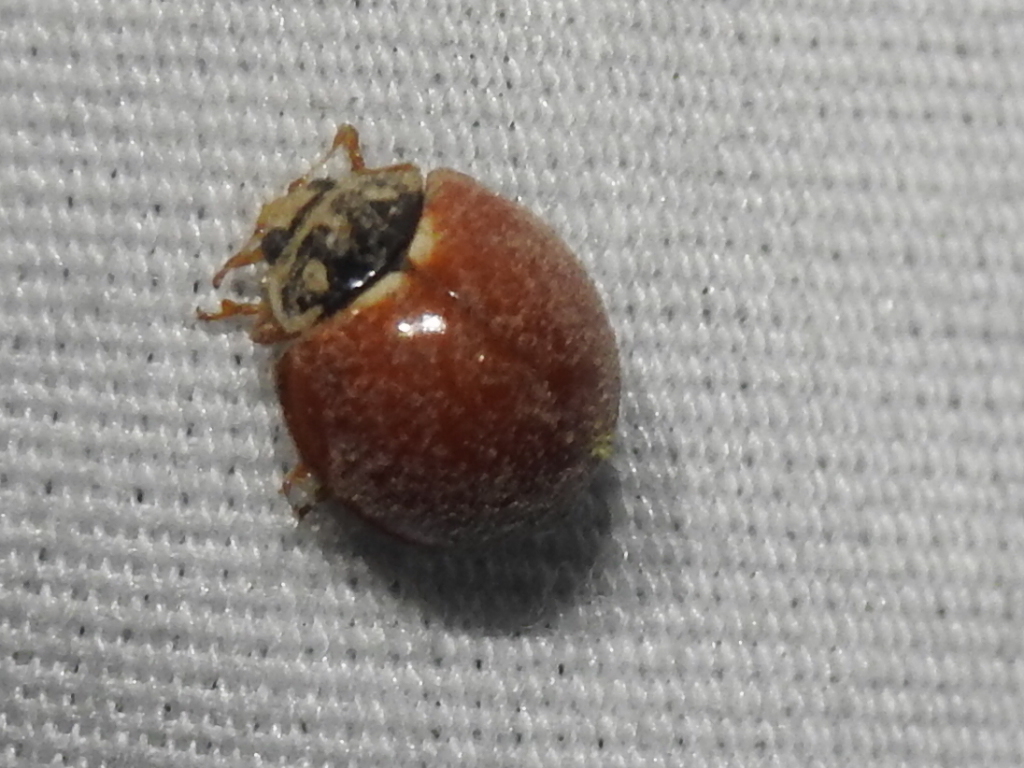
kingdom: Animalia
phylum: Arthropoda
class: Insecta
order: Coleoptera
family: Coccinellidae
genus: Cycloneda
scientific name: Cycloneda sanguinea
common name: Ladybird beetle
